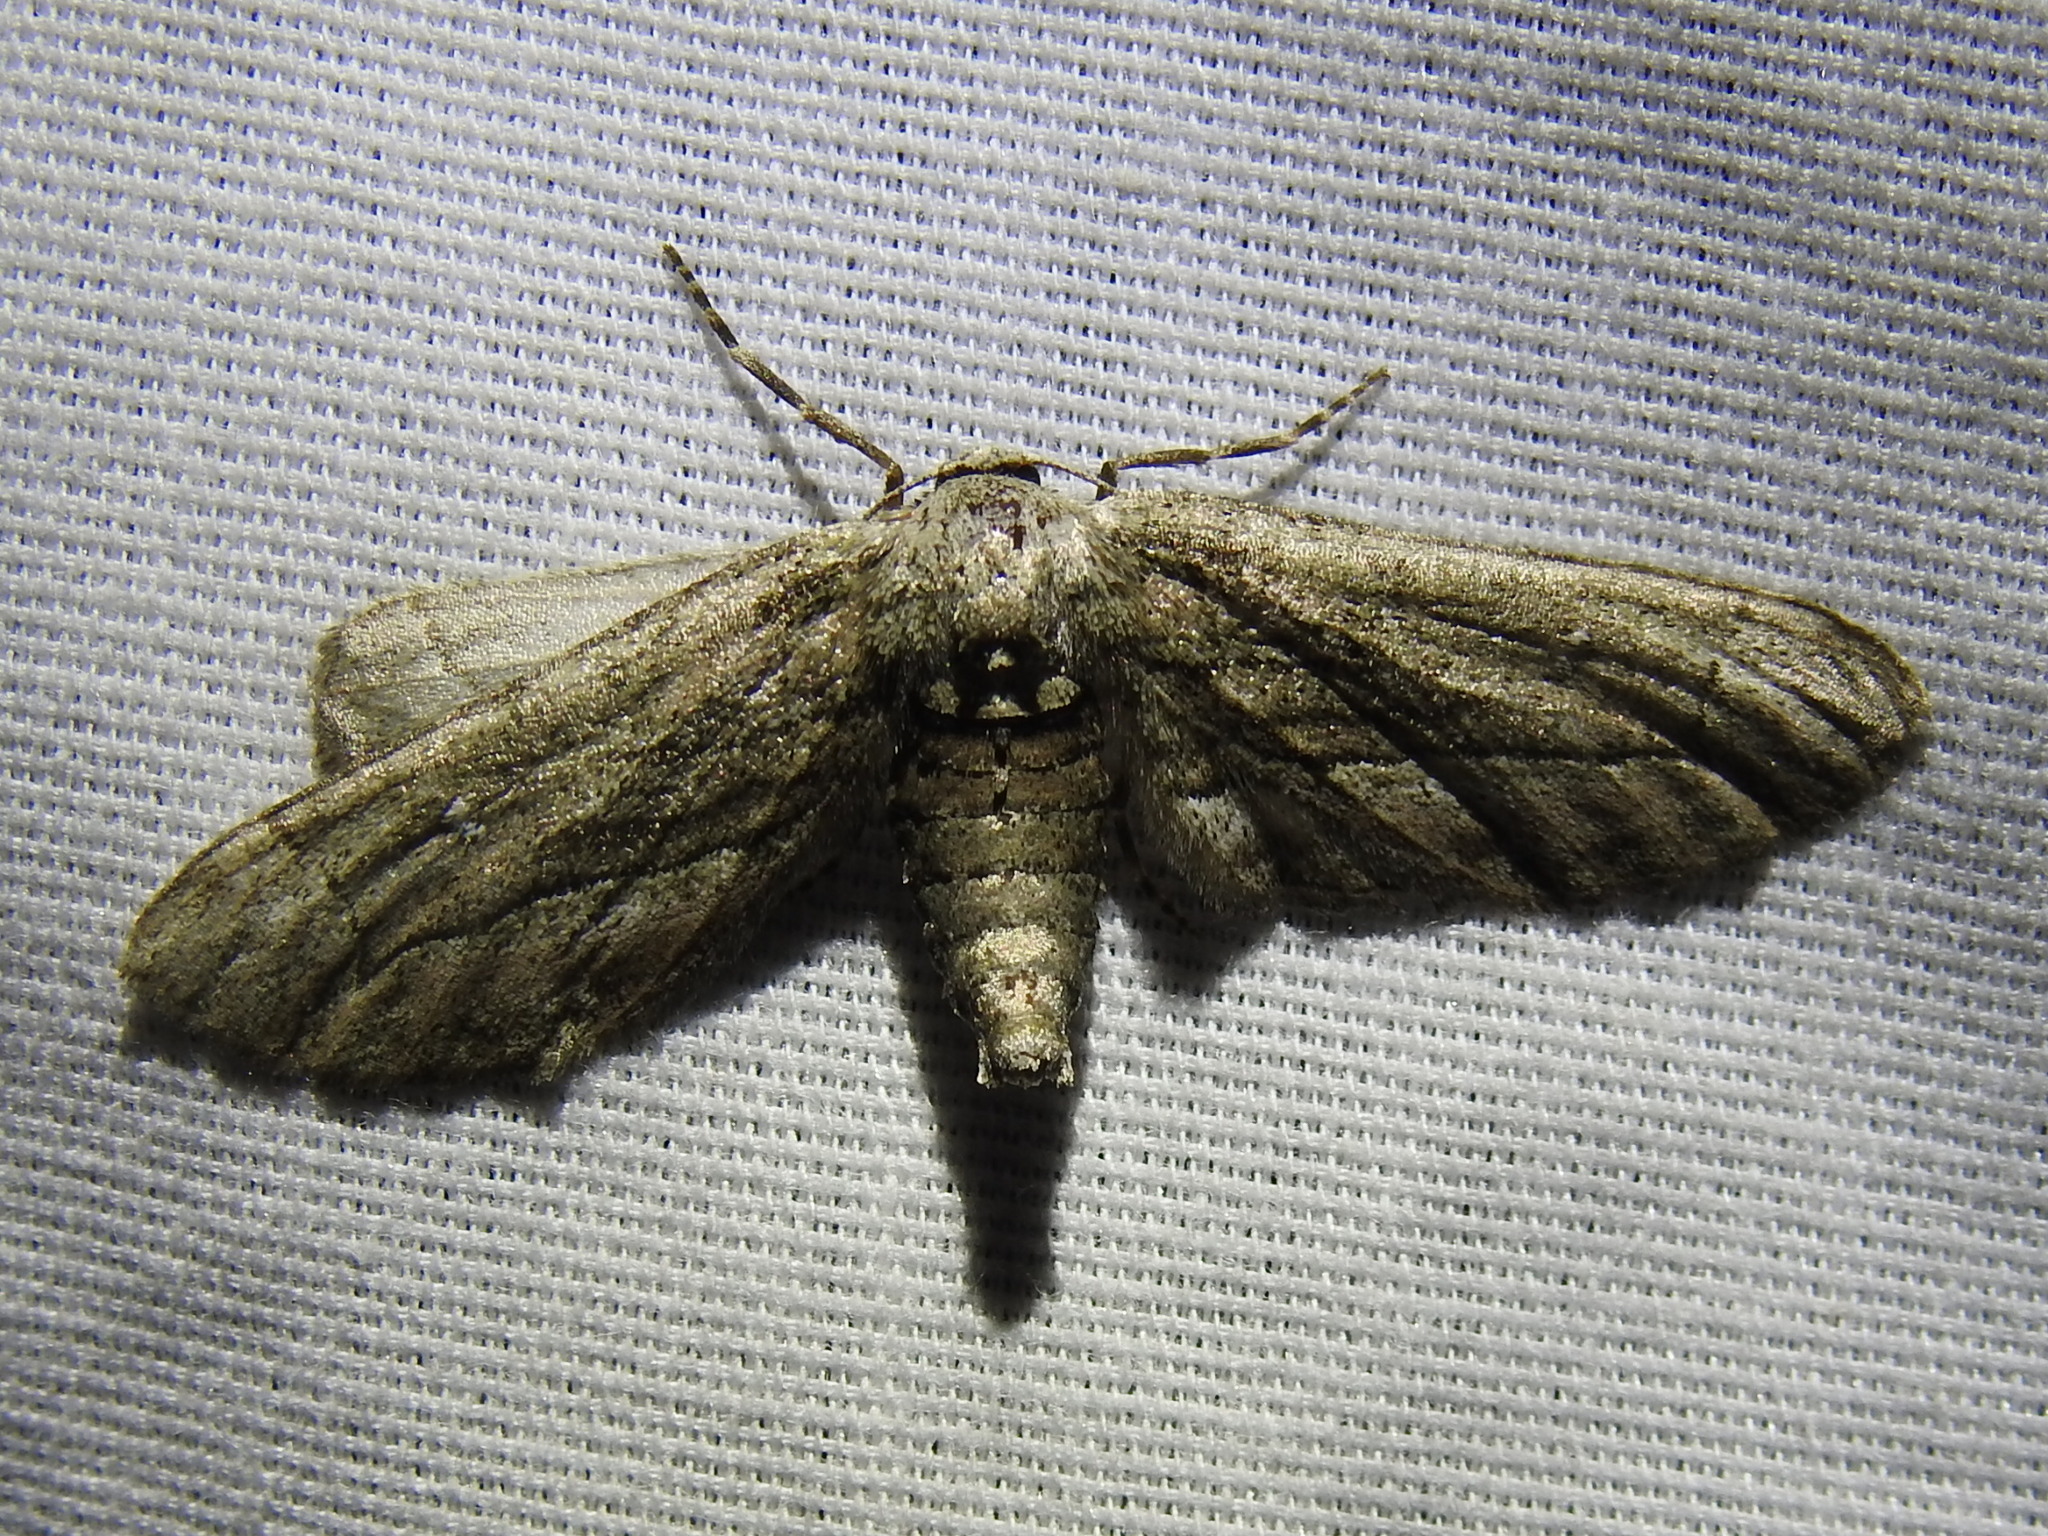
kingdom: Animalia
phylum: Arthropoda
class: Insecta
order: Lepidoptera
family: Geometridae
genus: Holochroa
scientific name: Holochroa dissociarius
